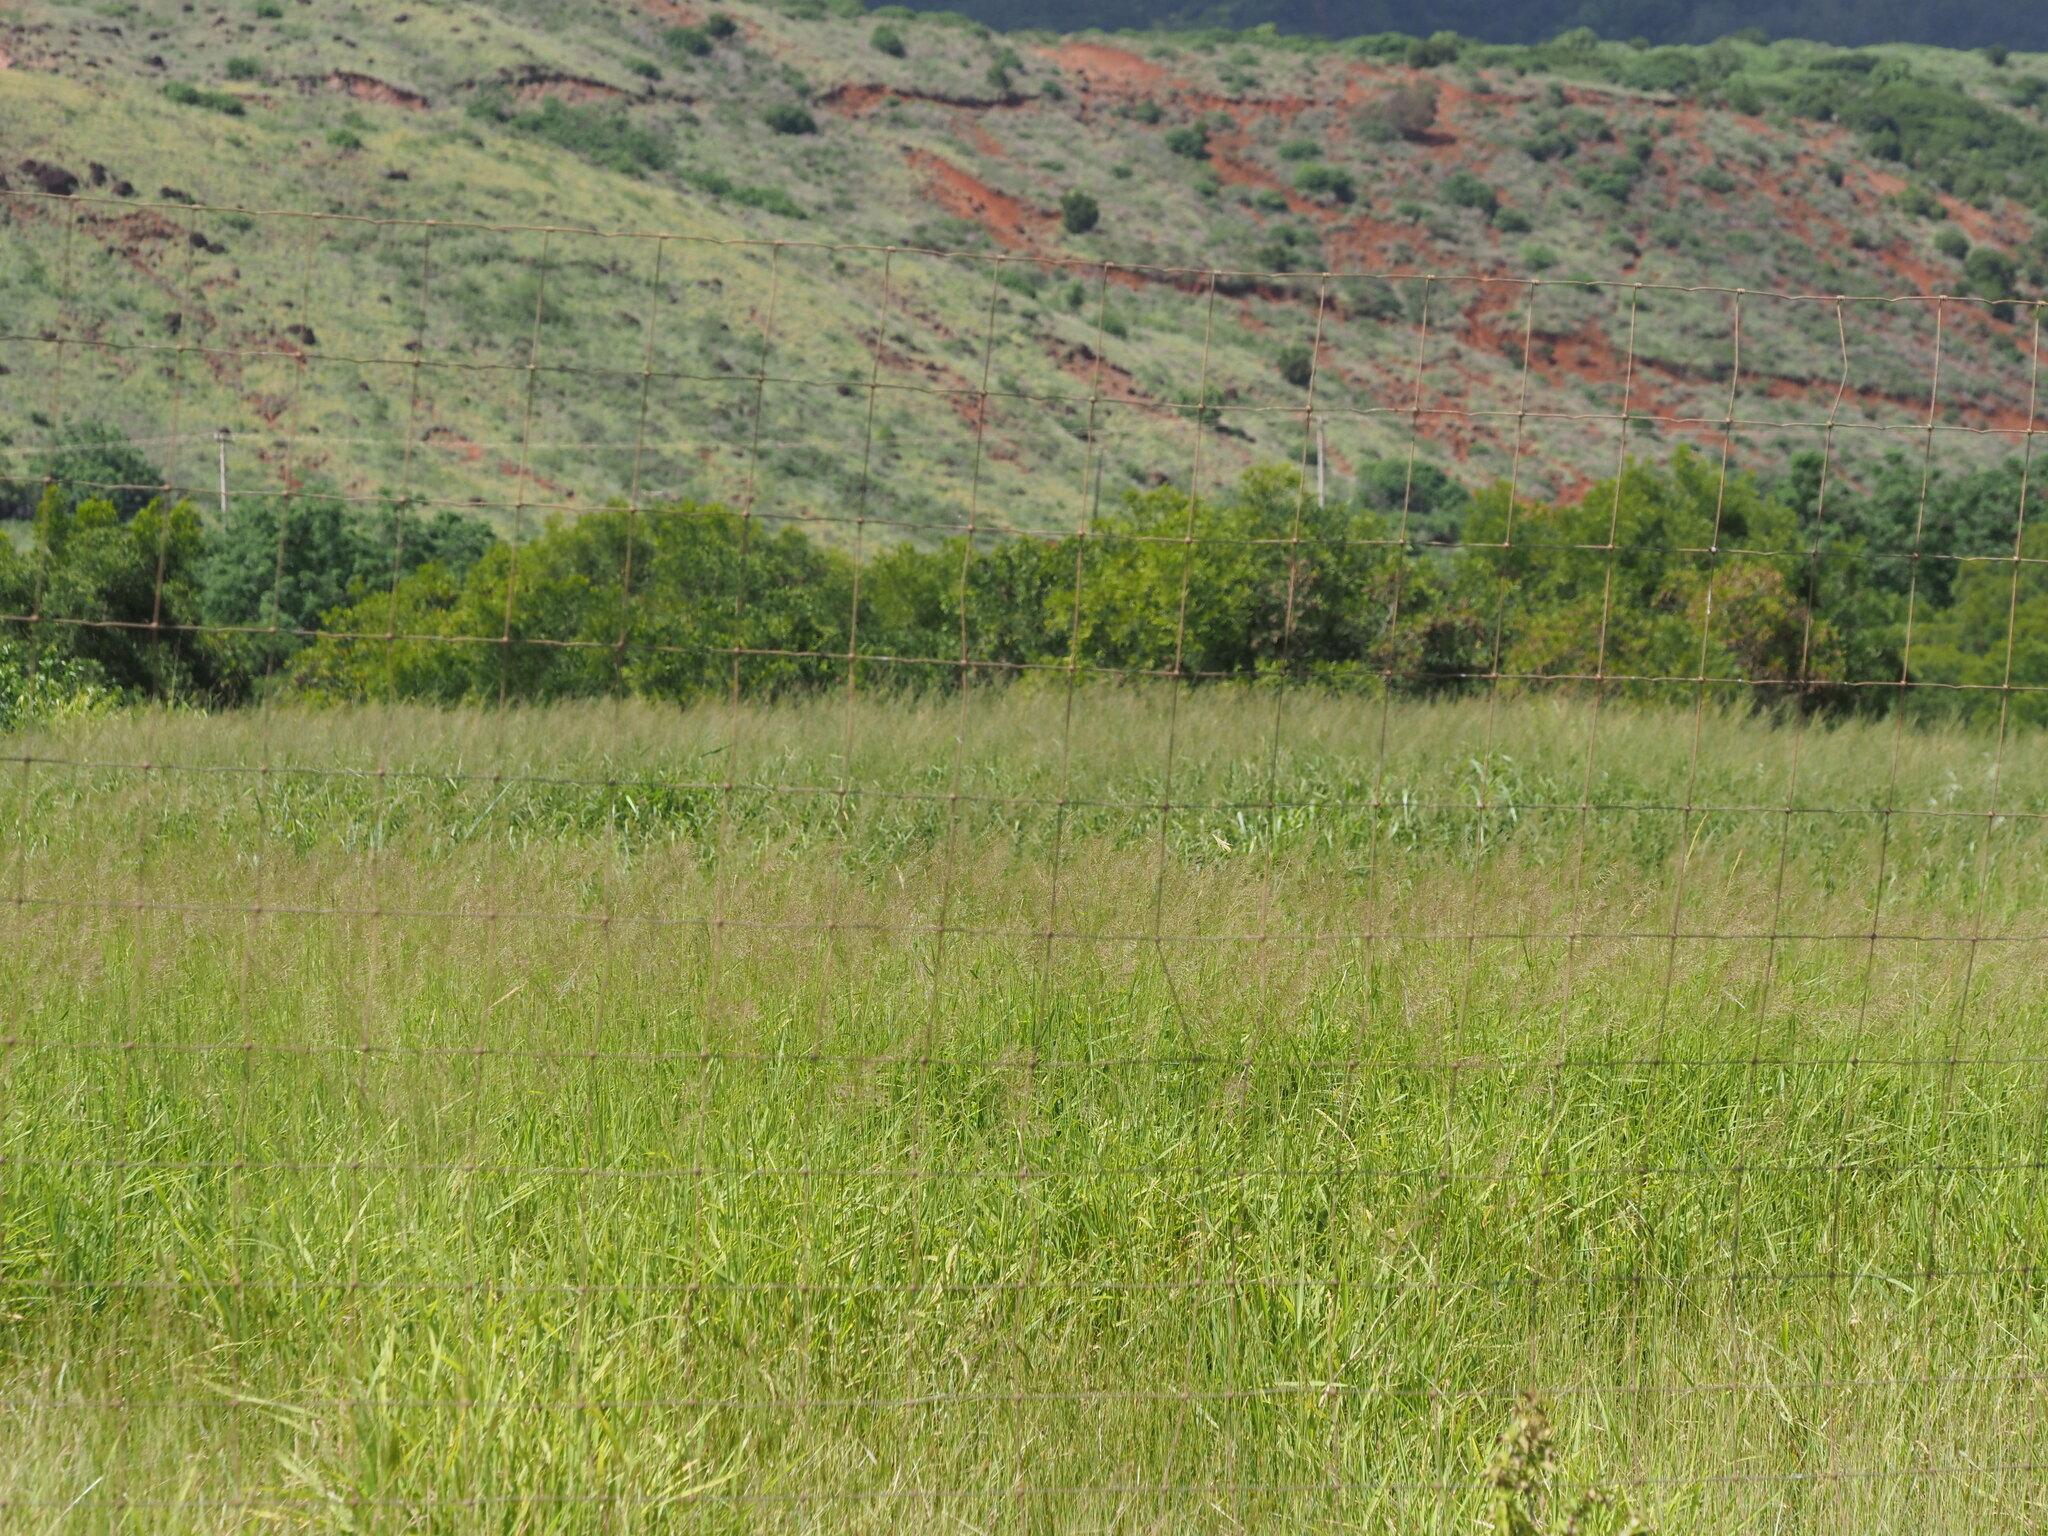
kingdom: Plantae
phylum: Tracheophyta
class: Liliopsida
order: Poales
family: Poaceae
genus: Megathyrsus
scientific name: Megathyrsus maximus
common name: Guineagrass
